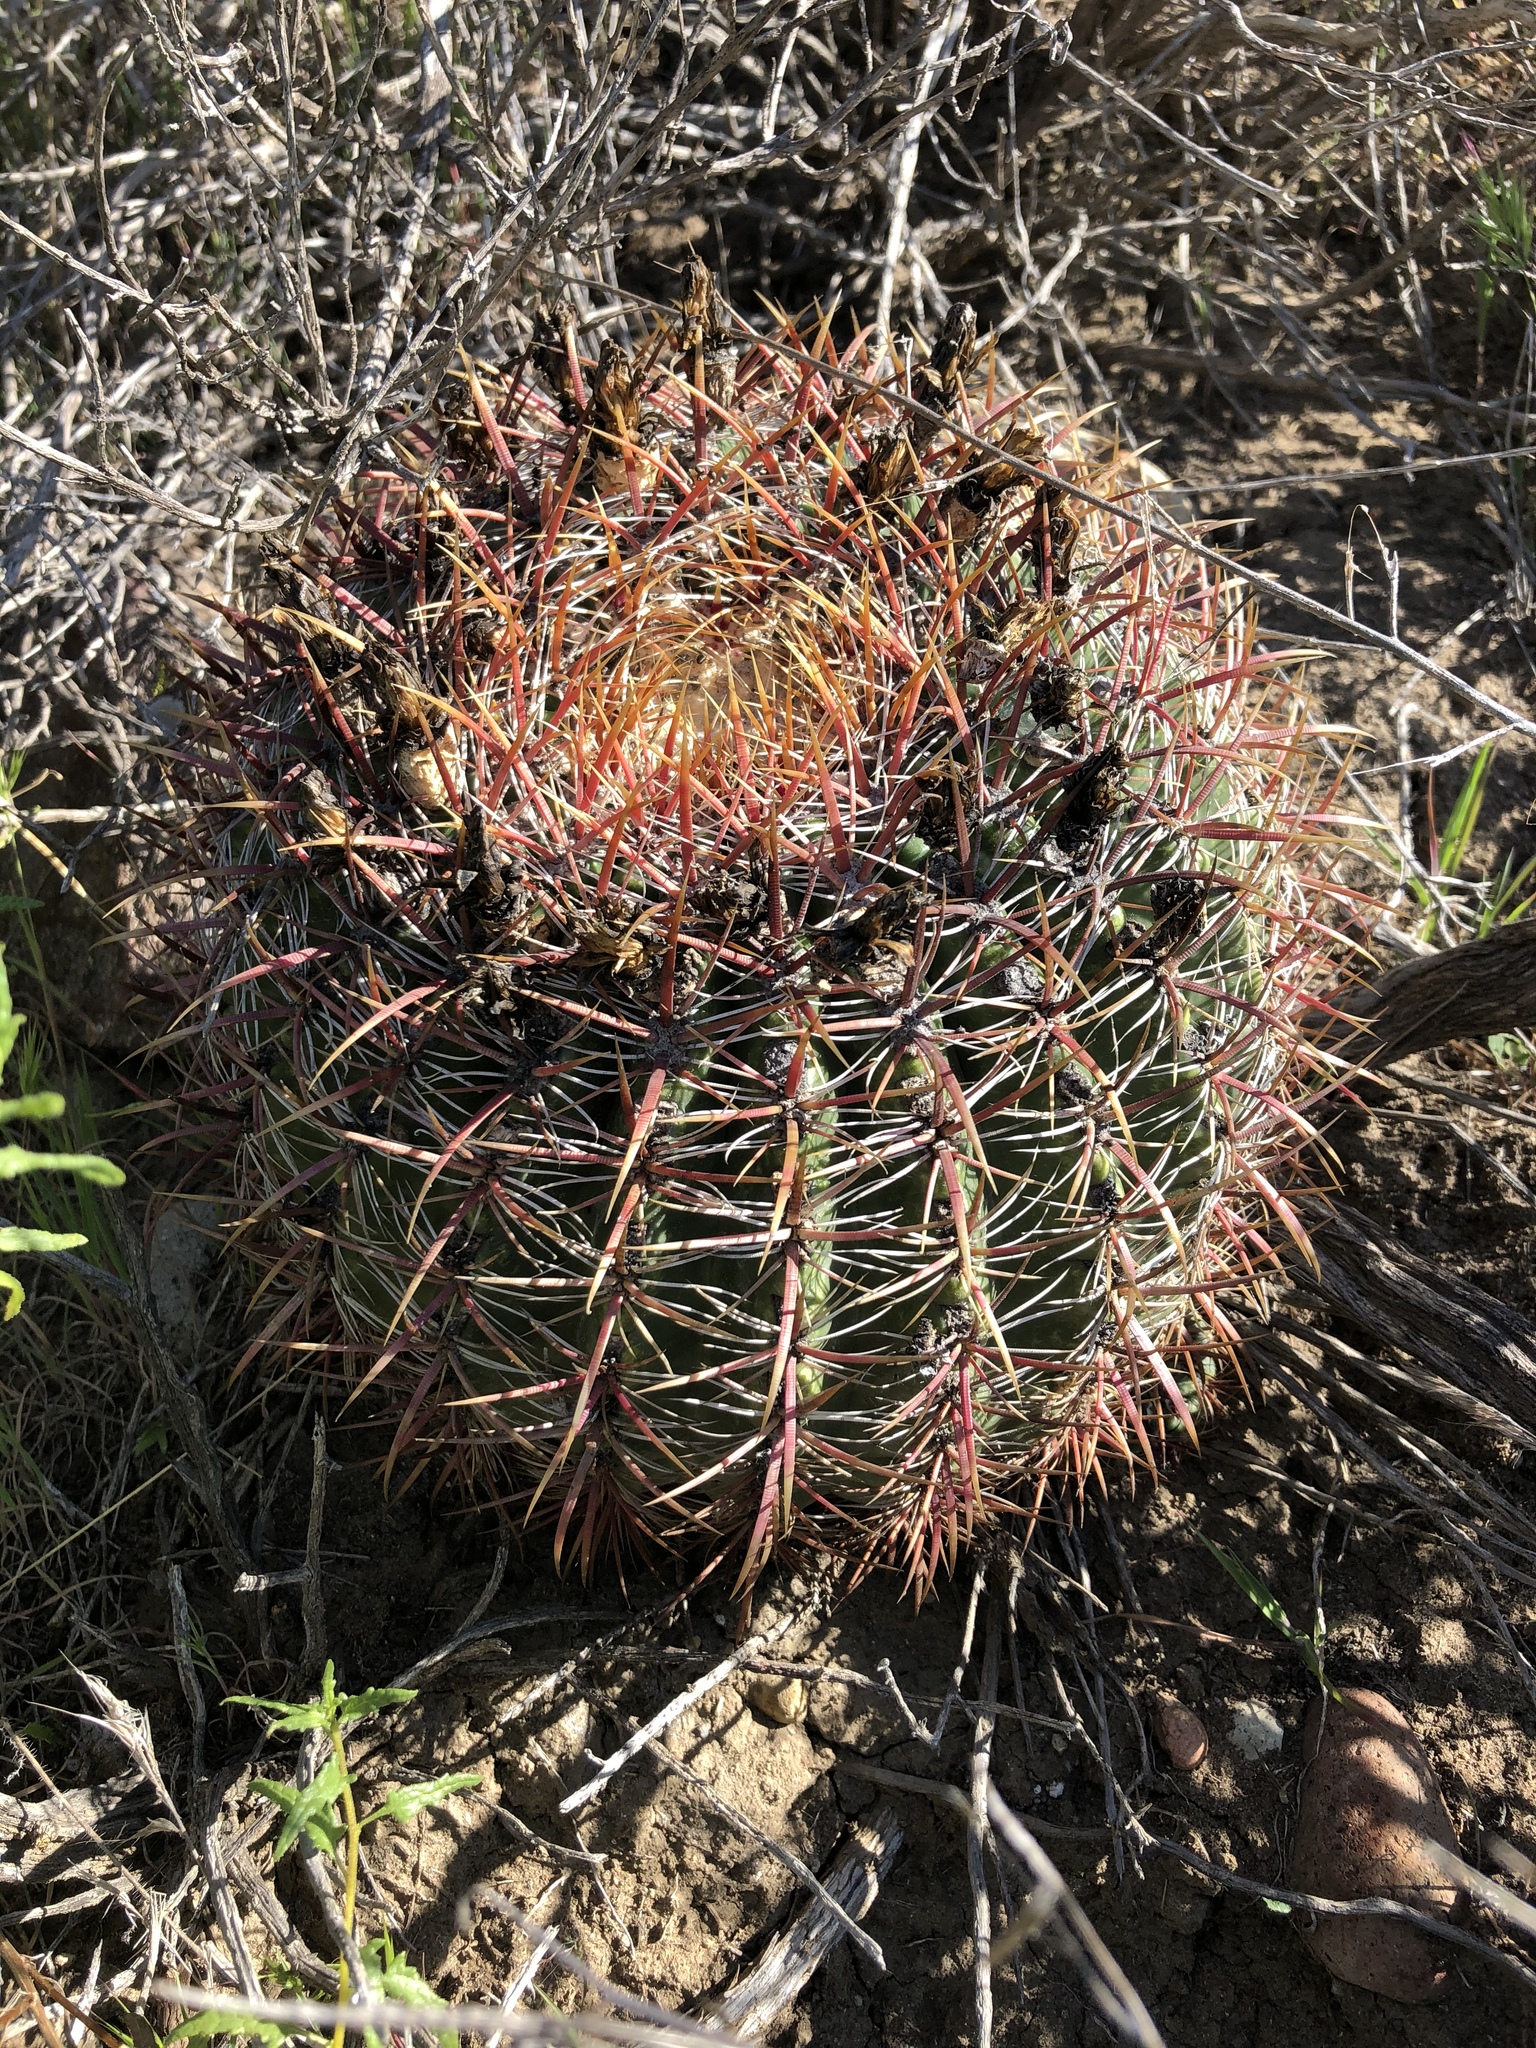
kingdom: Plantae
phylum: Tracheophyta
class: Magnoliopsida
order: Caryophyllales
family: Cactaceae
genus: Ferocactus
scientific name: Ferocactus viridescens
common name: San diego barrel cactus
